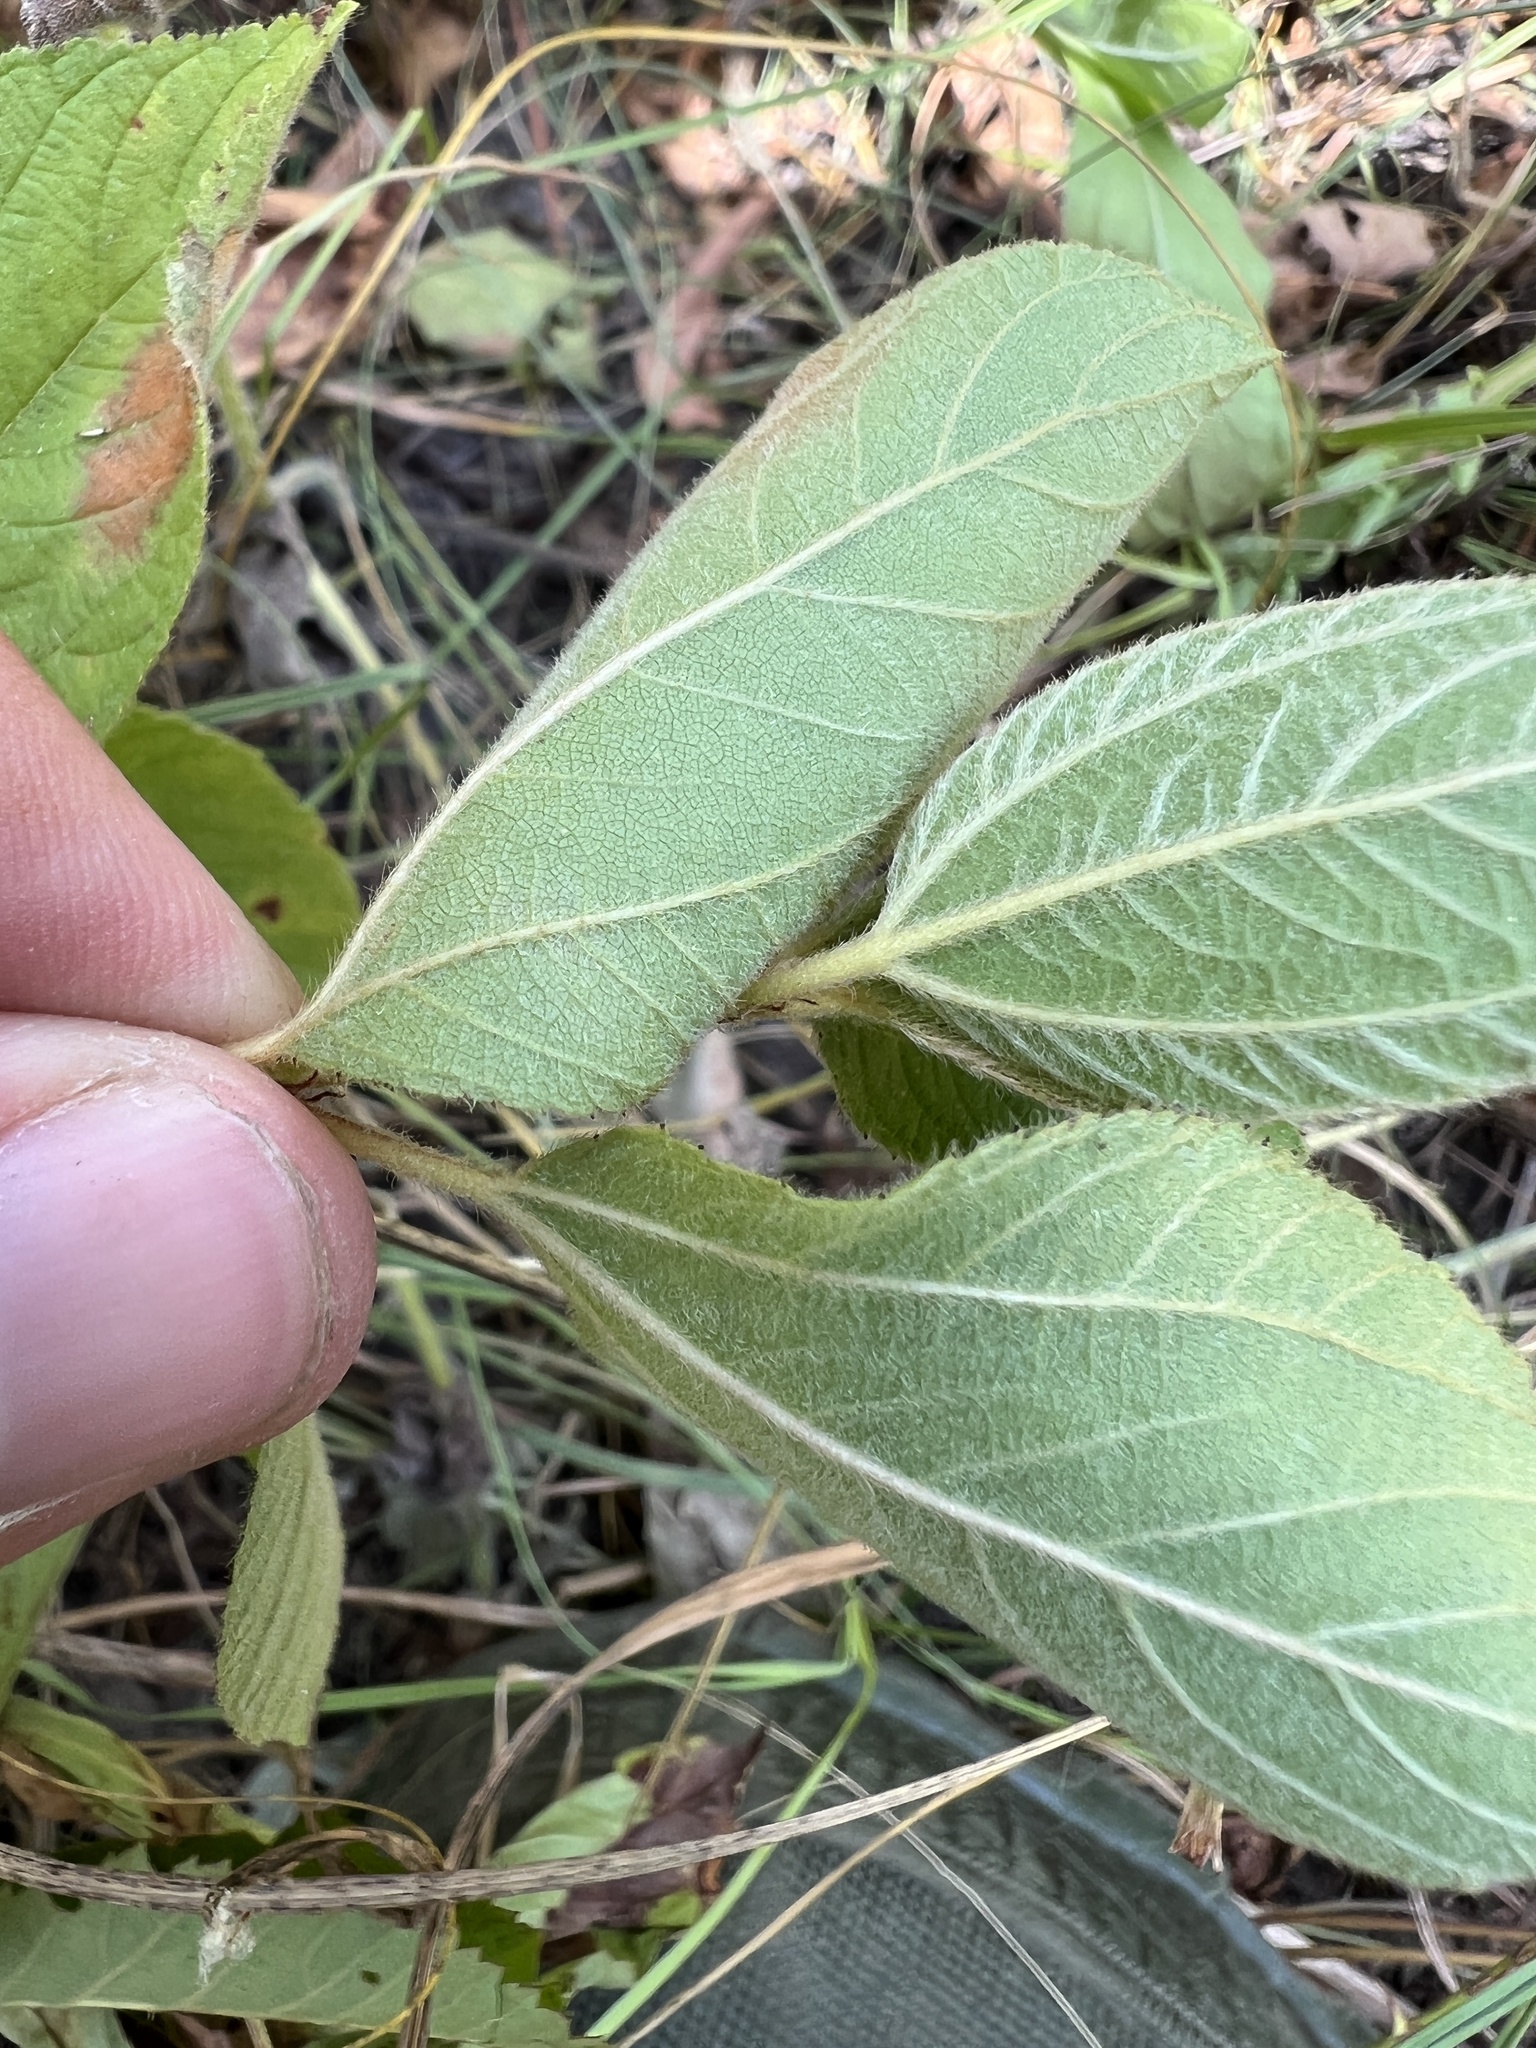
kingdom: Plantae
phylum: Tracheophyta
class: Magnoliopsida
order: Rosales
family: Rhamnaceae
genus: Ceanothus
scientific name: Ceanothus americanus
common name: Redroot
